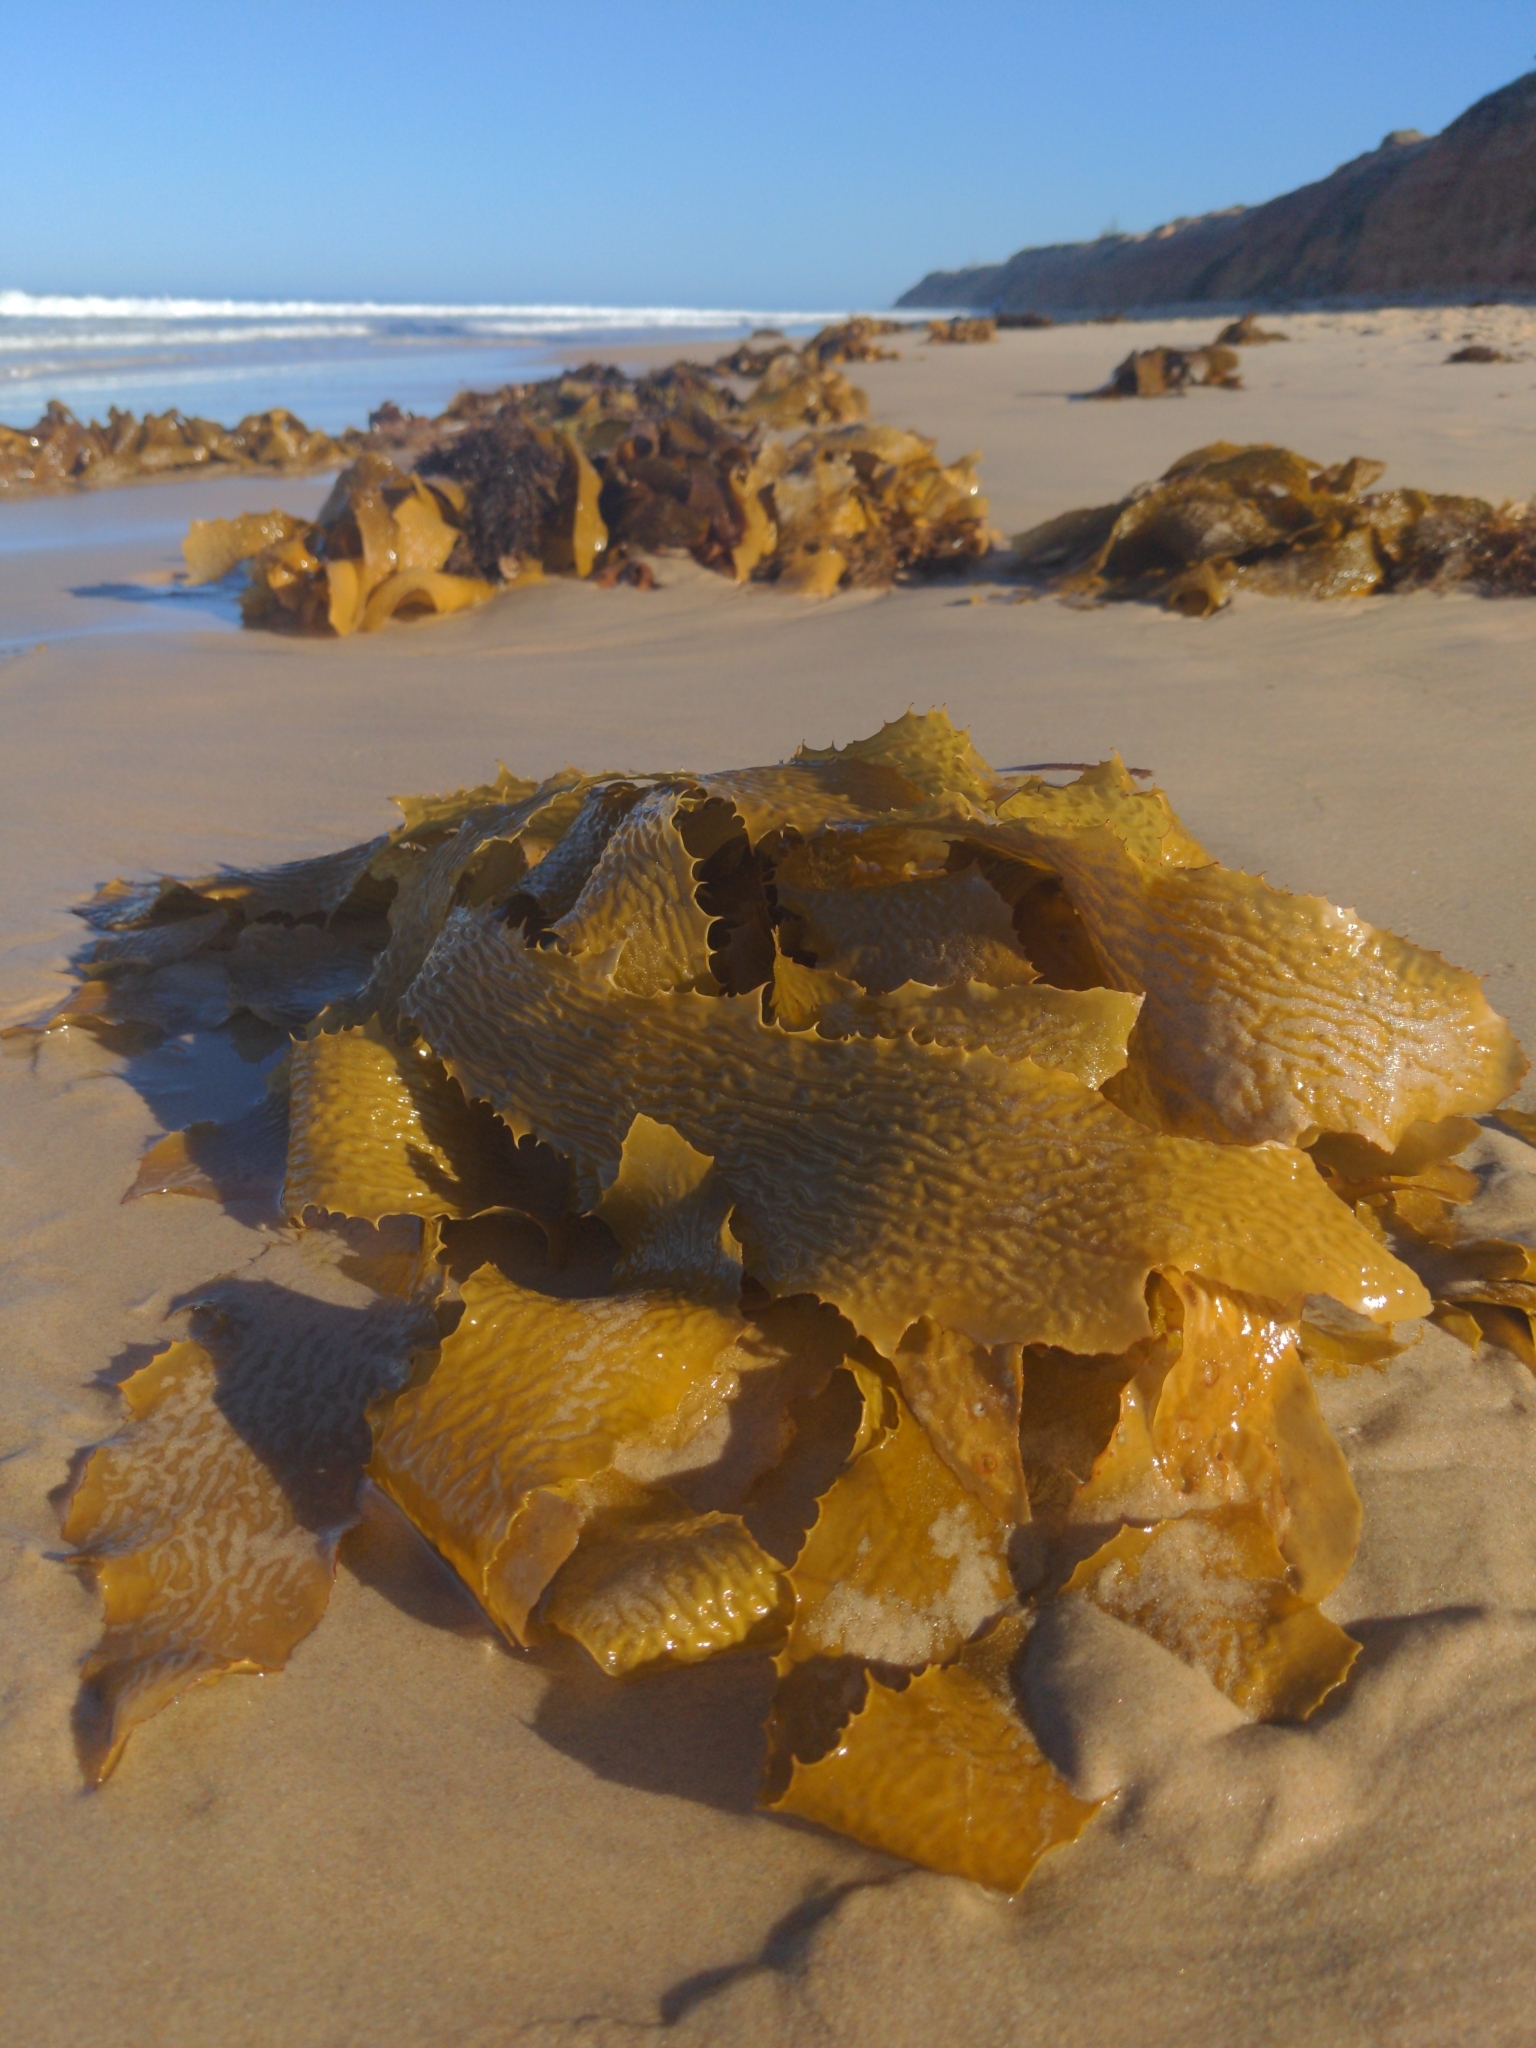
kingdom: Chromista
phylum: Ochrophyta
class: Phaeophyceae
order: Laminariales
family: Lessoniaceae
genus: Ecklonia
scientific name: Ecklonia radiata
